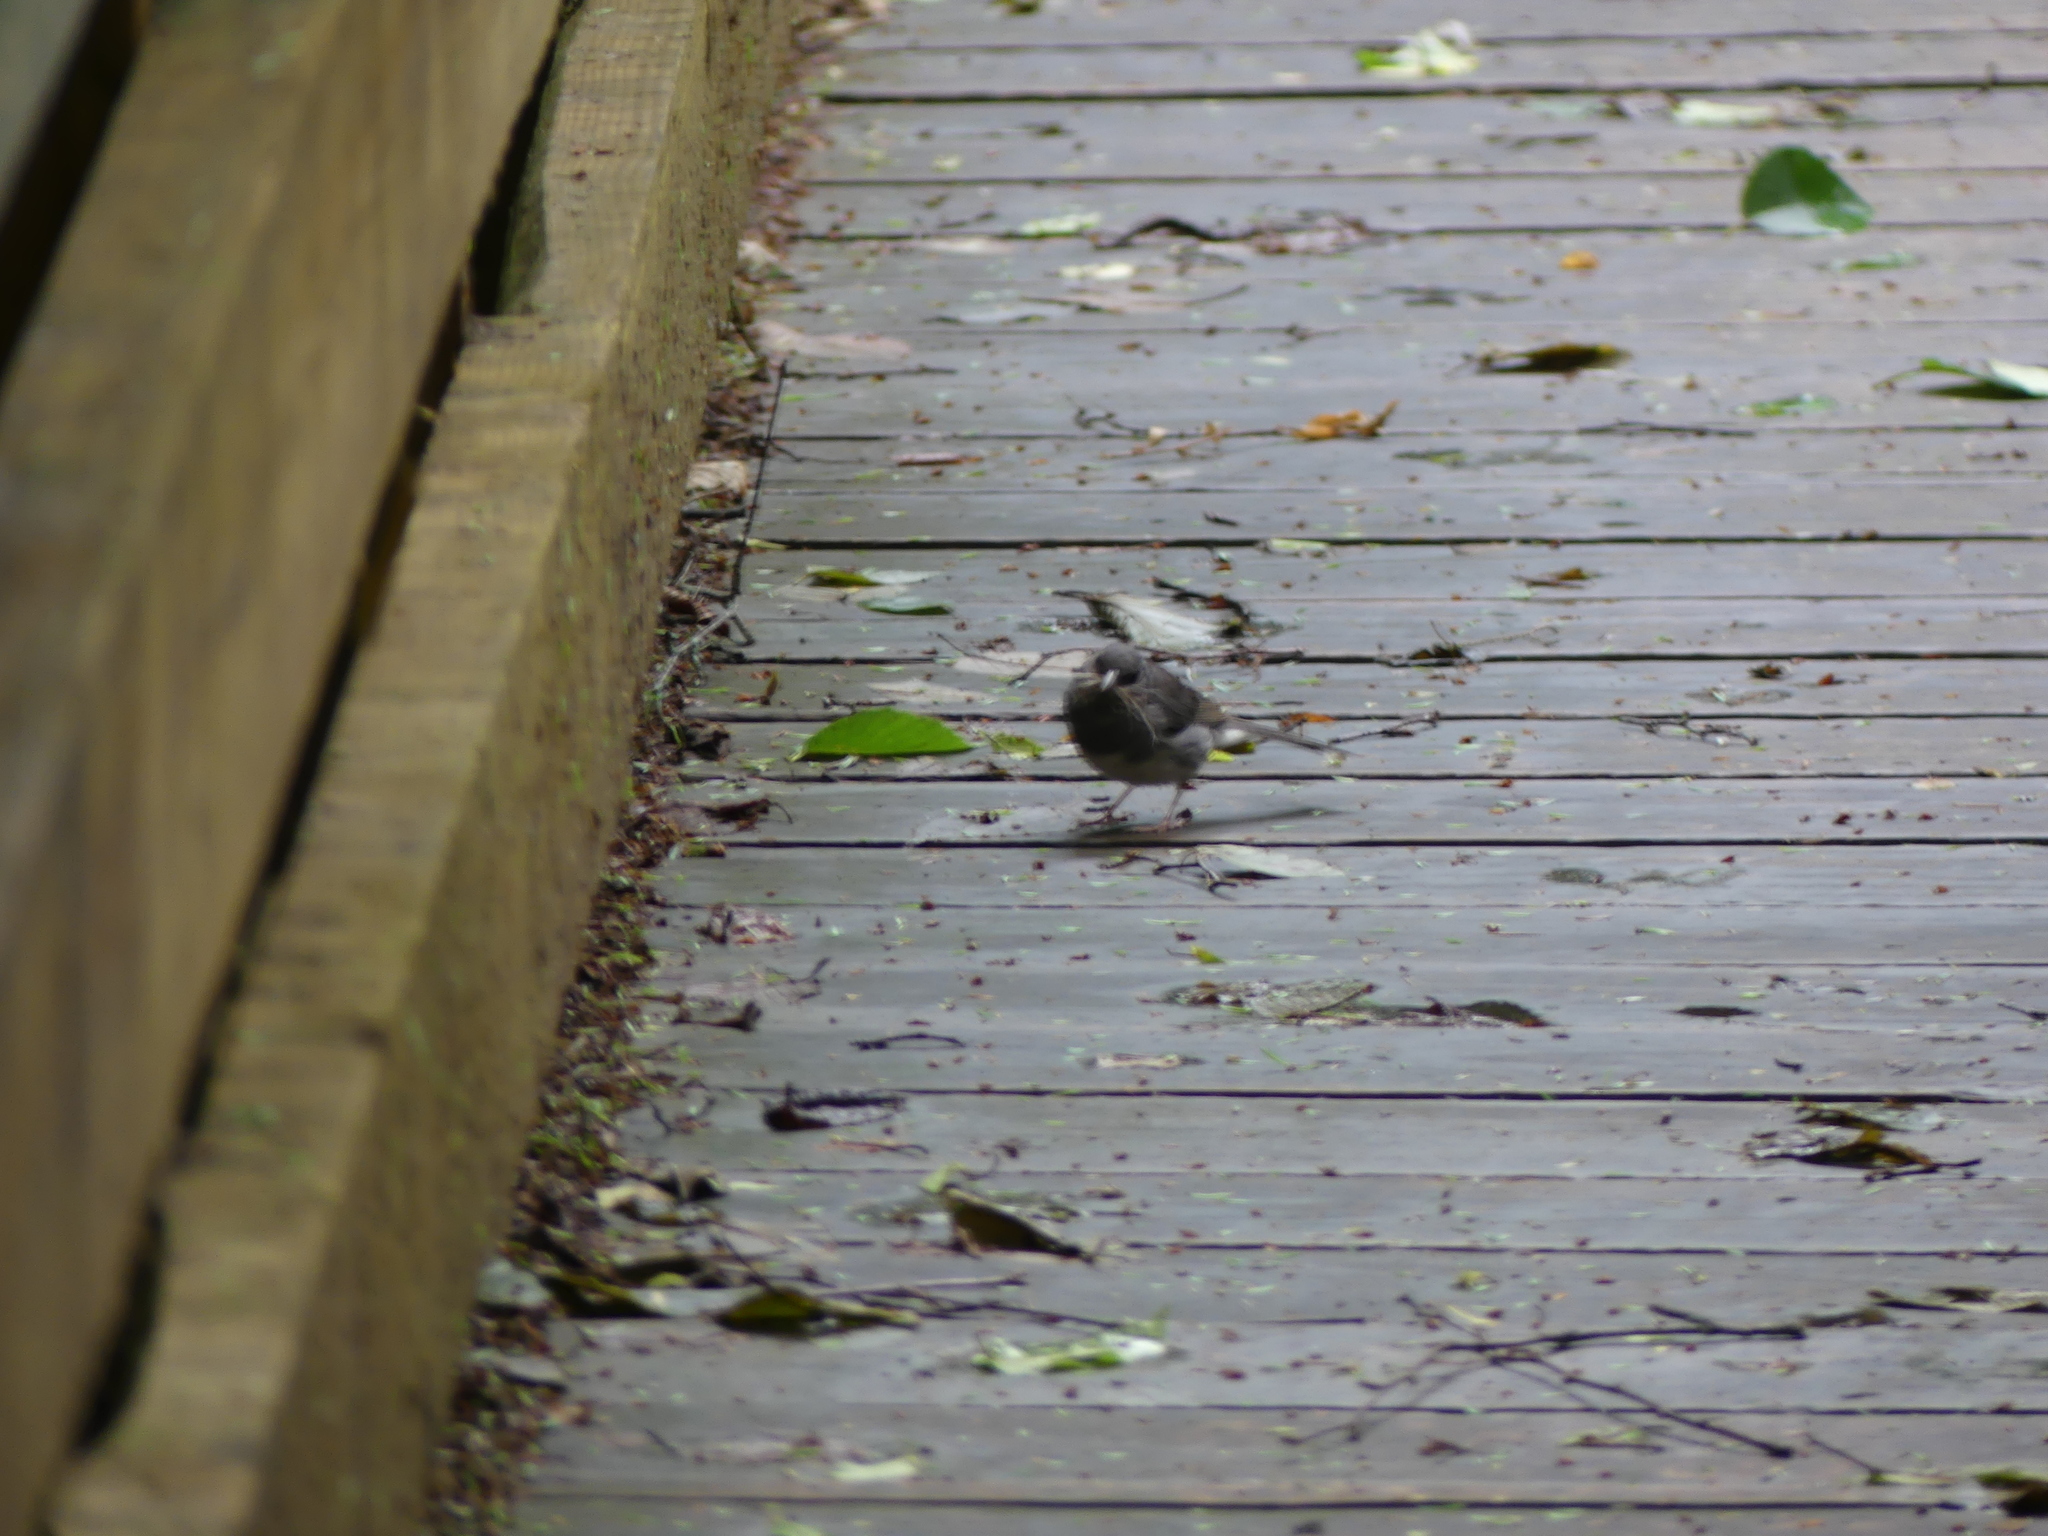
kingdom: Animalia
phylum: Chordata
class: Aves
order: Passeriformes
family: Passerellidae
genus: Junco
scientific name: Junco hyemalis
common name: Dark-eyed junco
